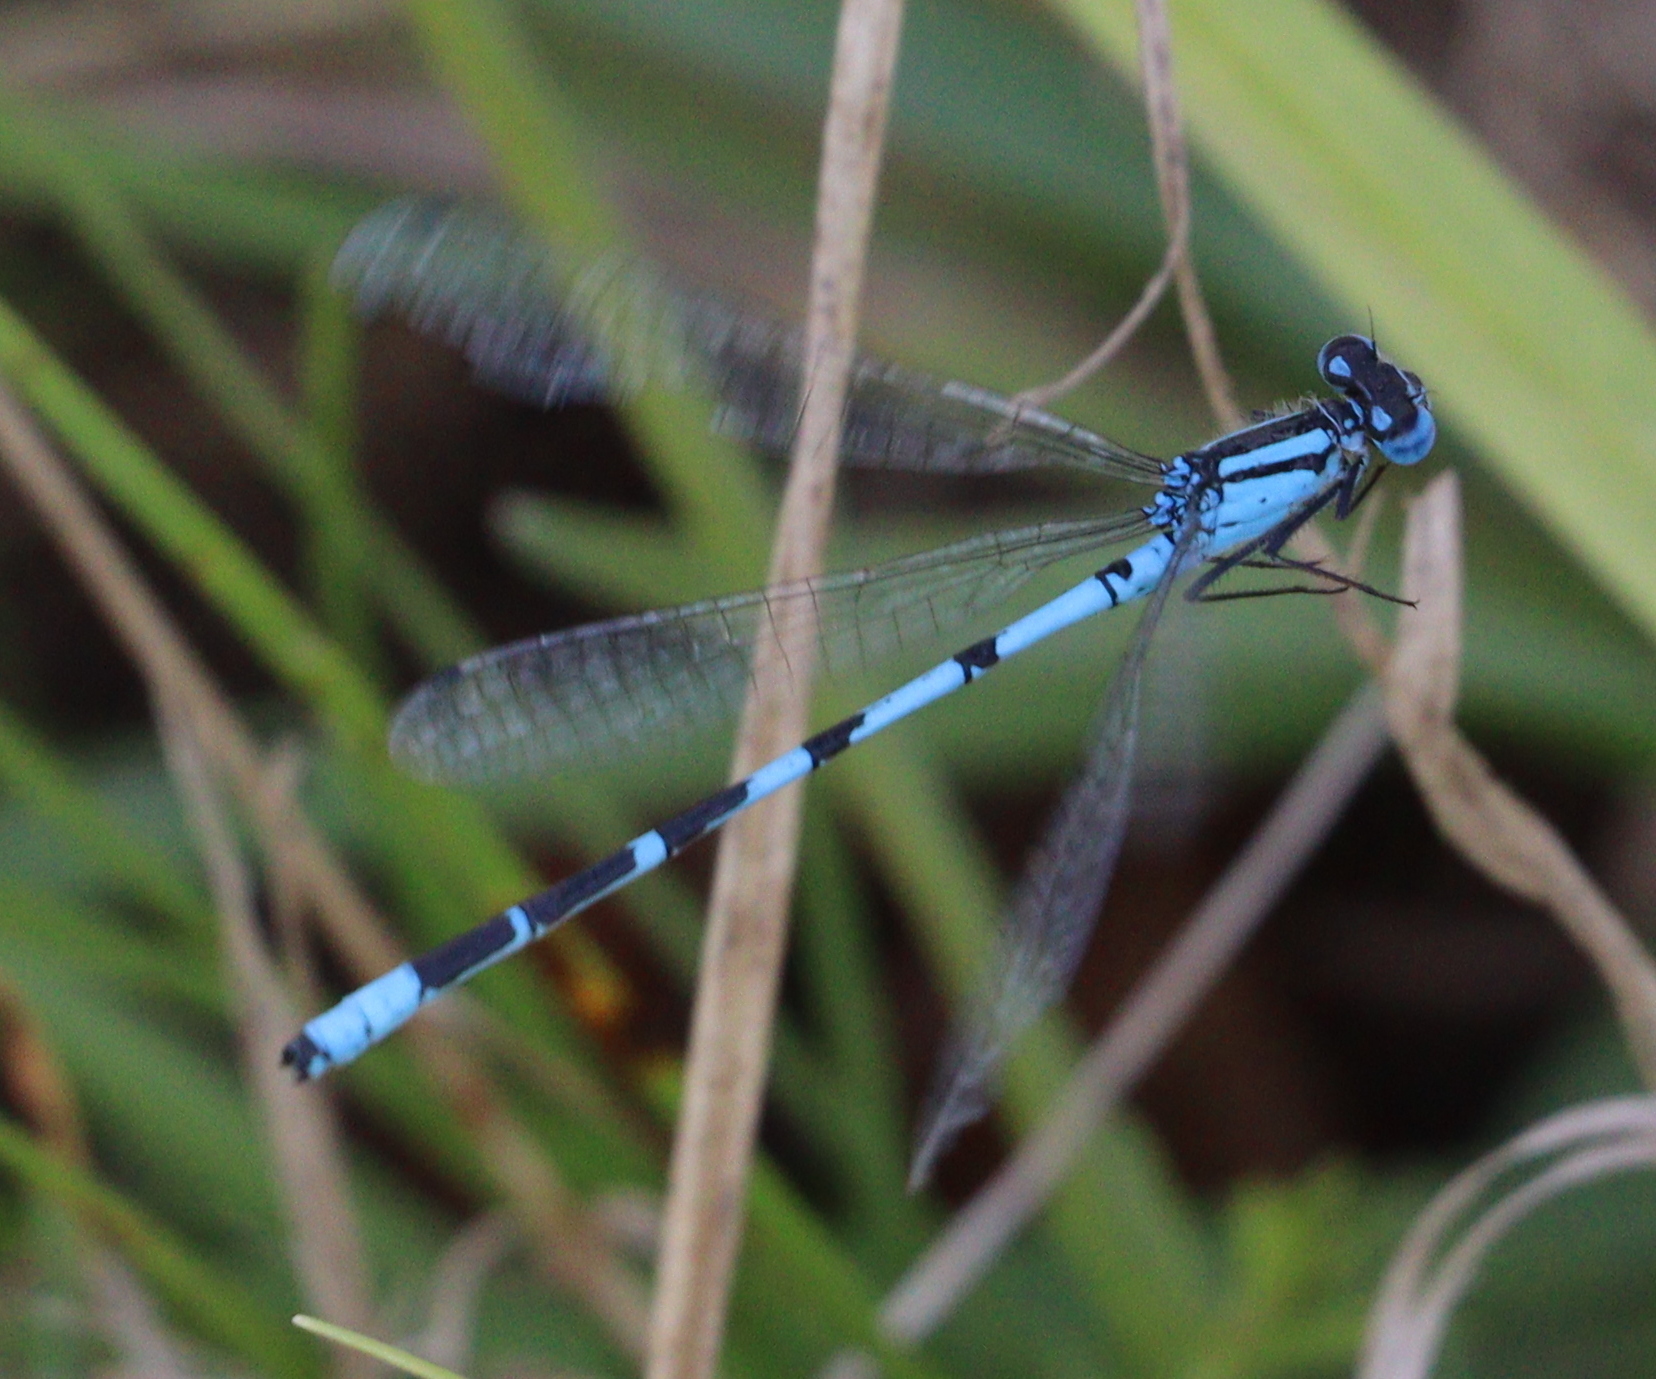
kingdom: Animalia
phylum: Arthropoda
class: Insecta
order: Odonata
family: Coenagrionidae
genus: Enallagma
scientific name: Enallagma cyathigerum
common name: Common blue damselfly
